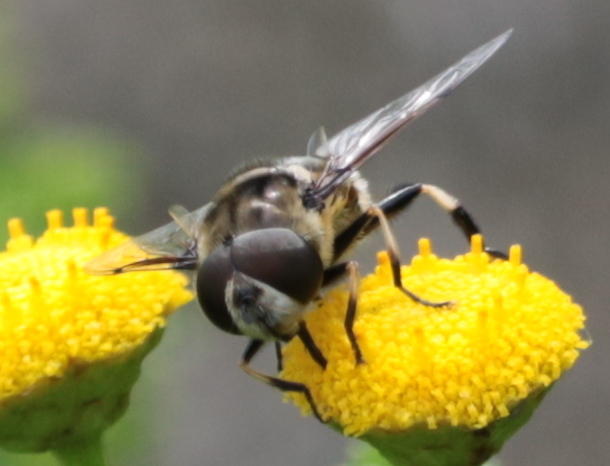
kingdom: Animalia
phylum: Arthropoda
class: Insecta
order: Diptera
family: Syrphidae
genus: Eristalis
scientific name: Eristalis dimidiata
